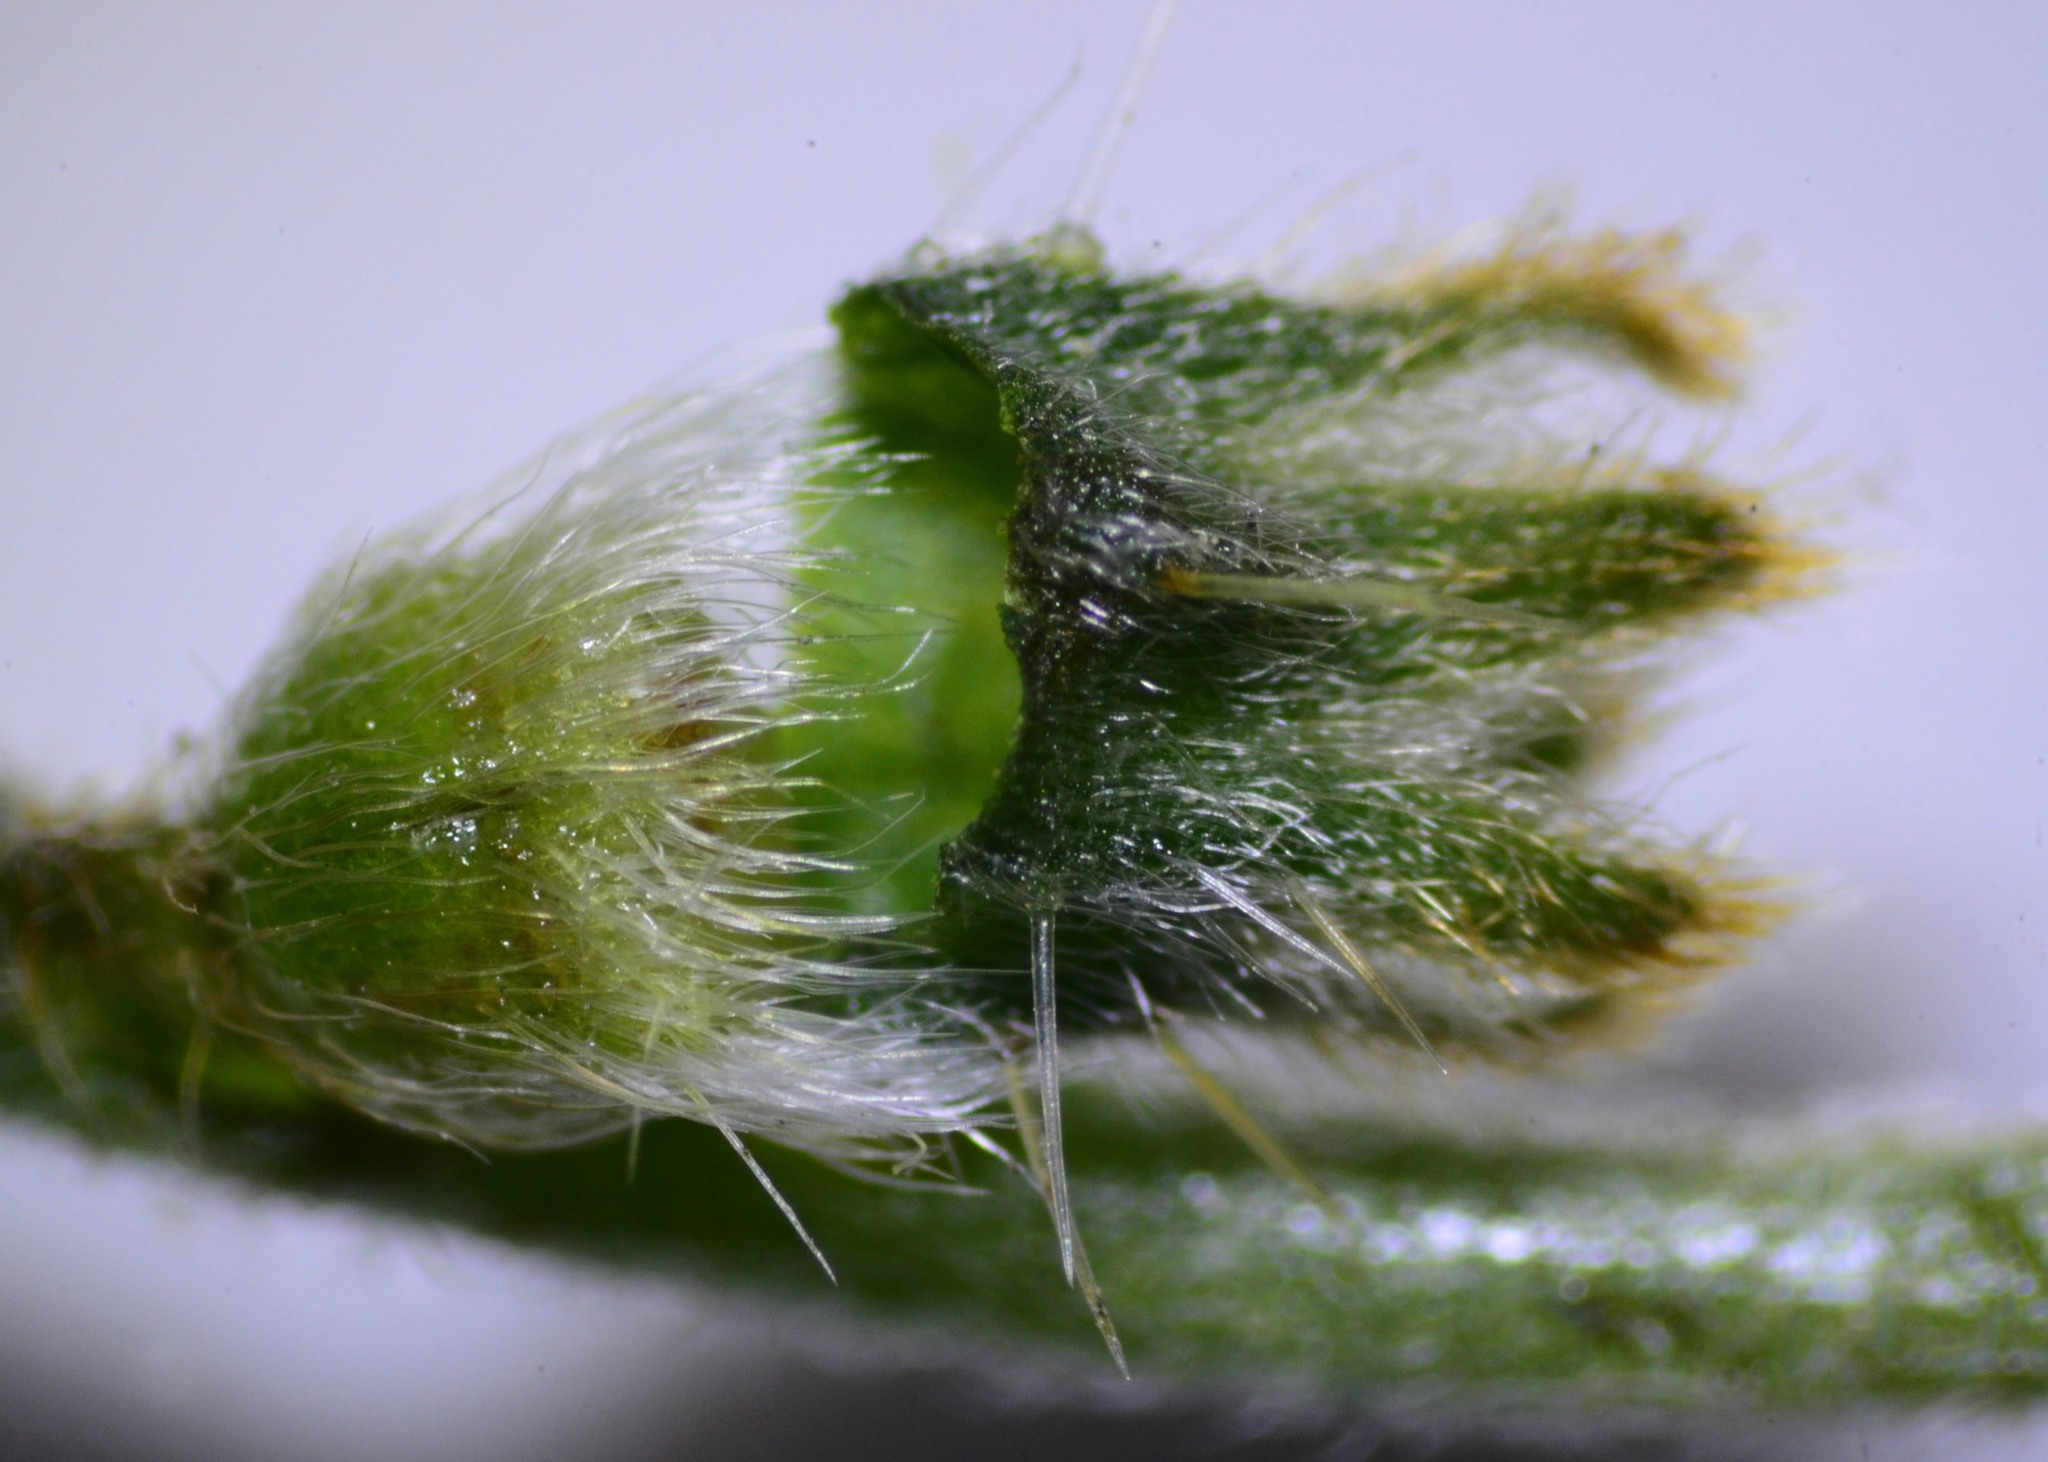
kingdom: Plantae
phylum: Tracheophyta
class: Magnoliopsida
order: Boraginales
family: Boraginaceae
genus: Plagiobothrys
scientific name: Plagiobothrys nothofulvus
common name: Popcorn-flower
